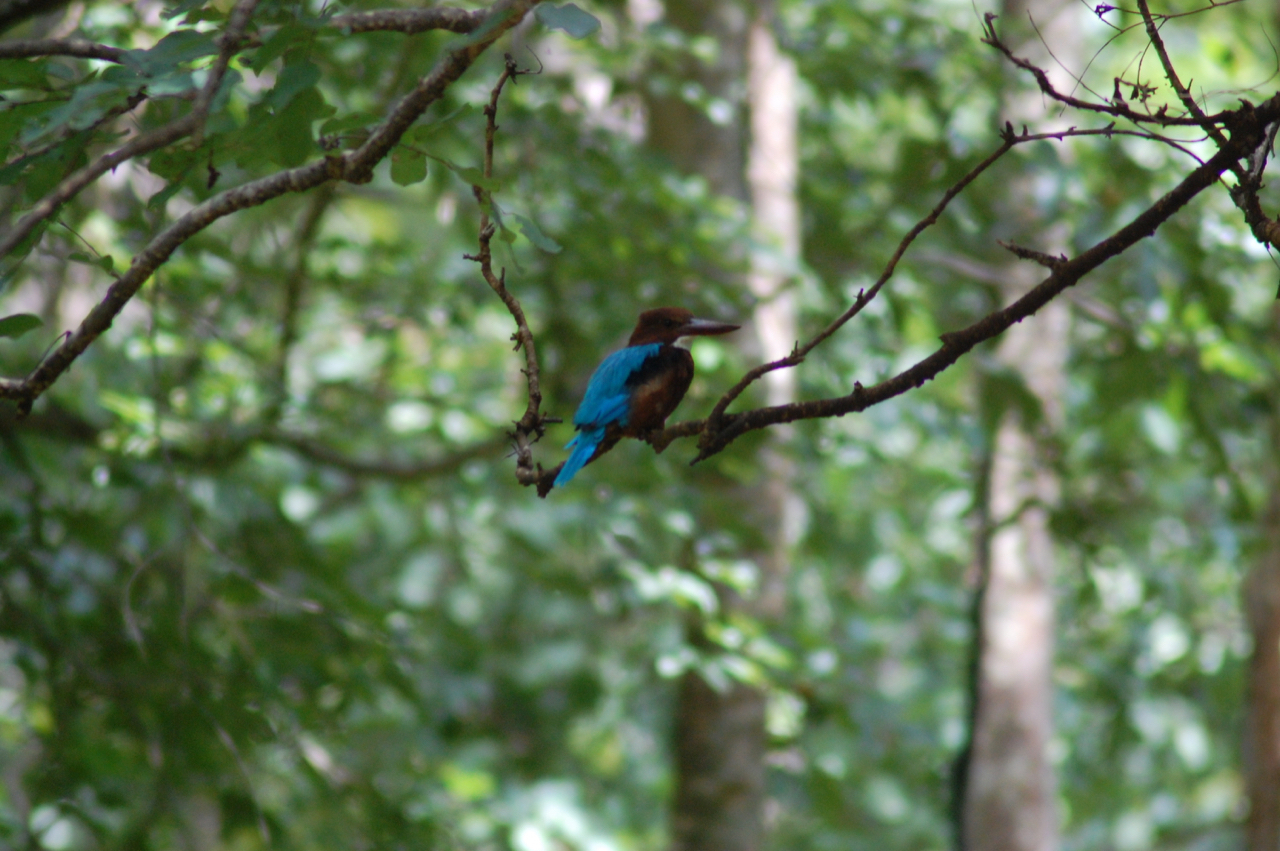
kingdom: Animalia
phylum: Chordata
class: Aves
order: Coraciiformes
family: Alcedinidae
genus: Halcyon
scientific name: Halcyon smyrnensis
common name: White-throated kingfisher
